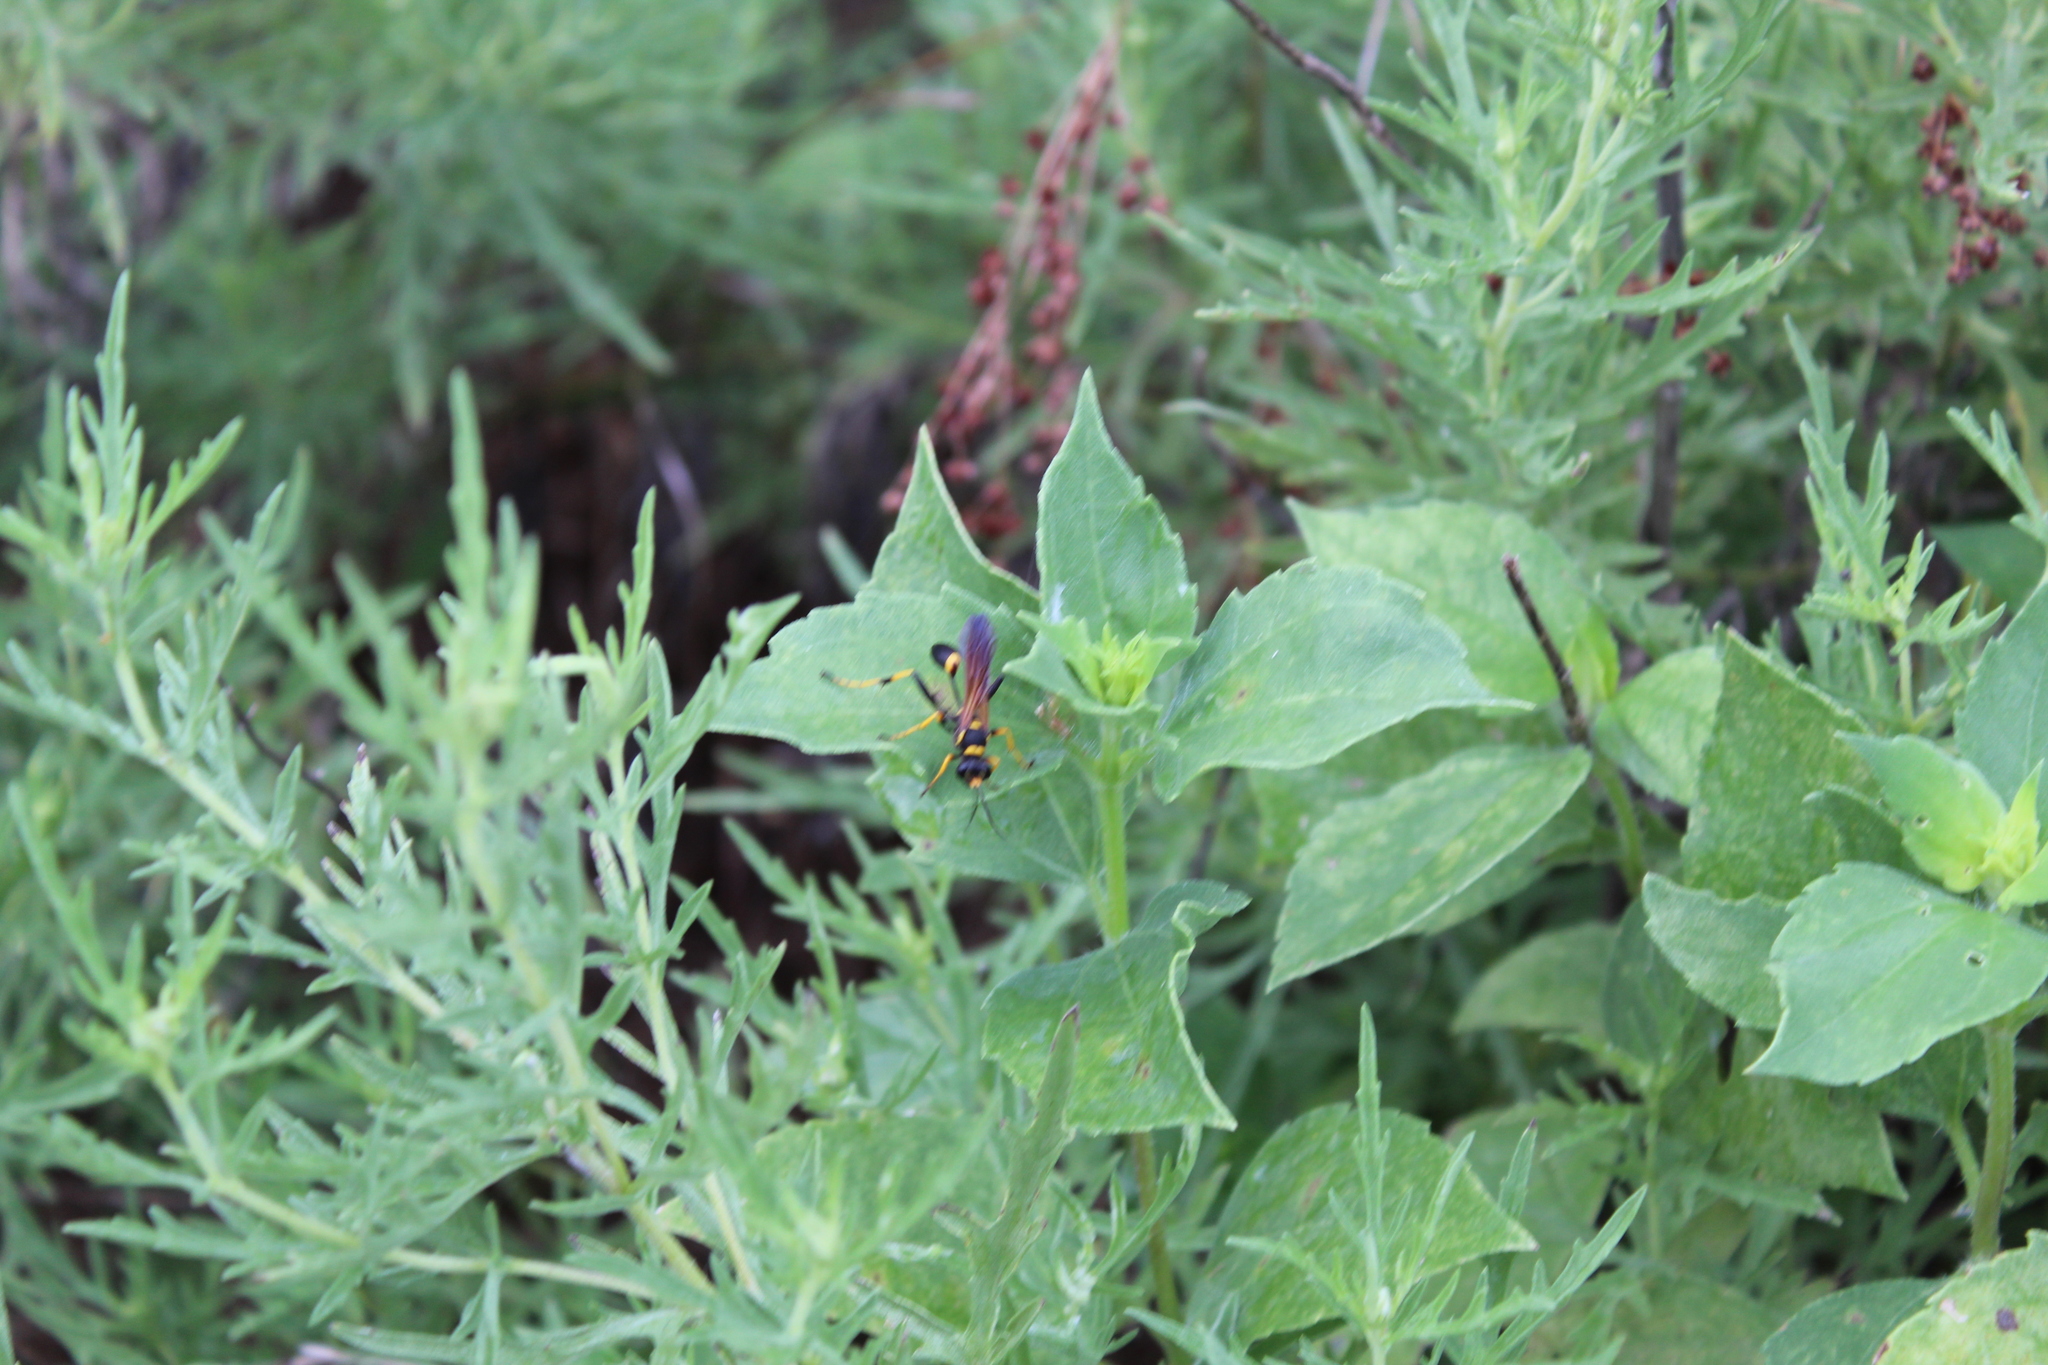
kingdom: Animalia
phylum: Arthropoda
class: Insecta
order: Hymenoptera
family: Sphecidae
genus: Sceliphron
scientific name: Sceliphron caementarium
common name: Mud dauber
